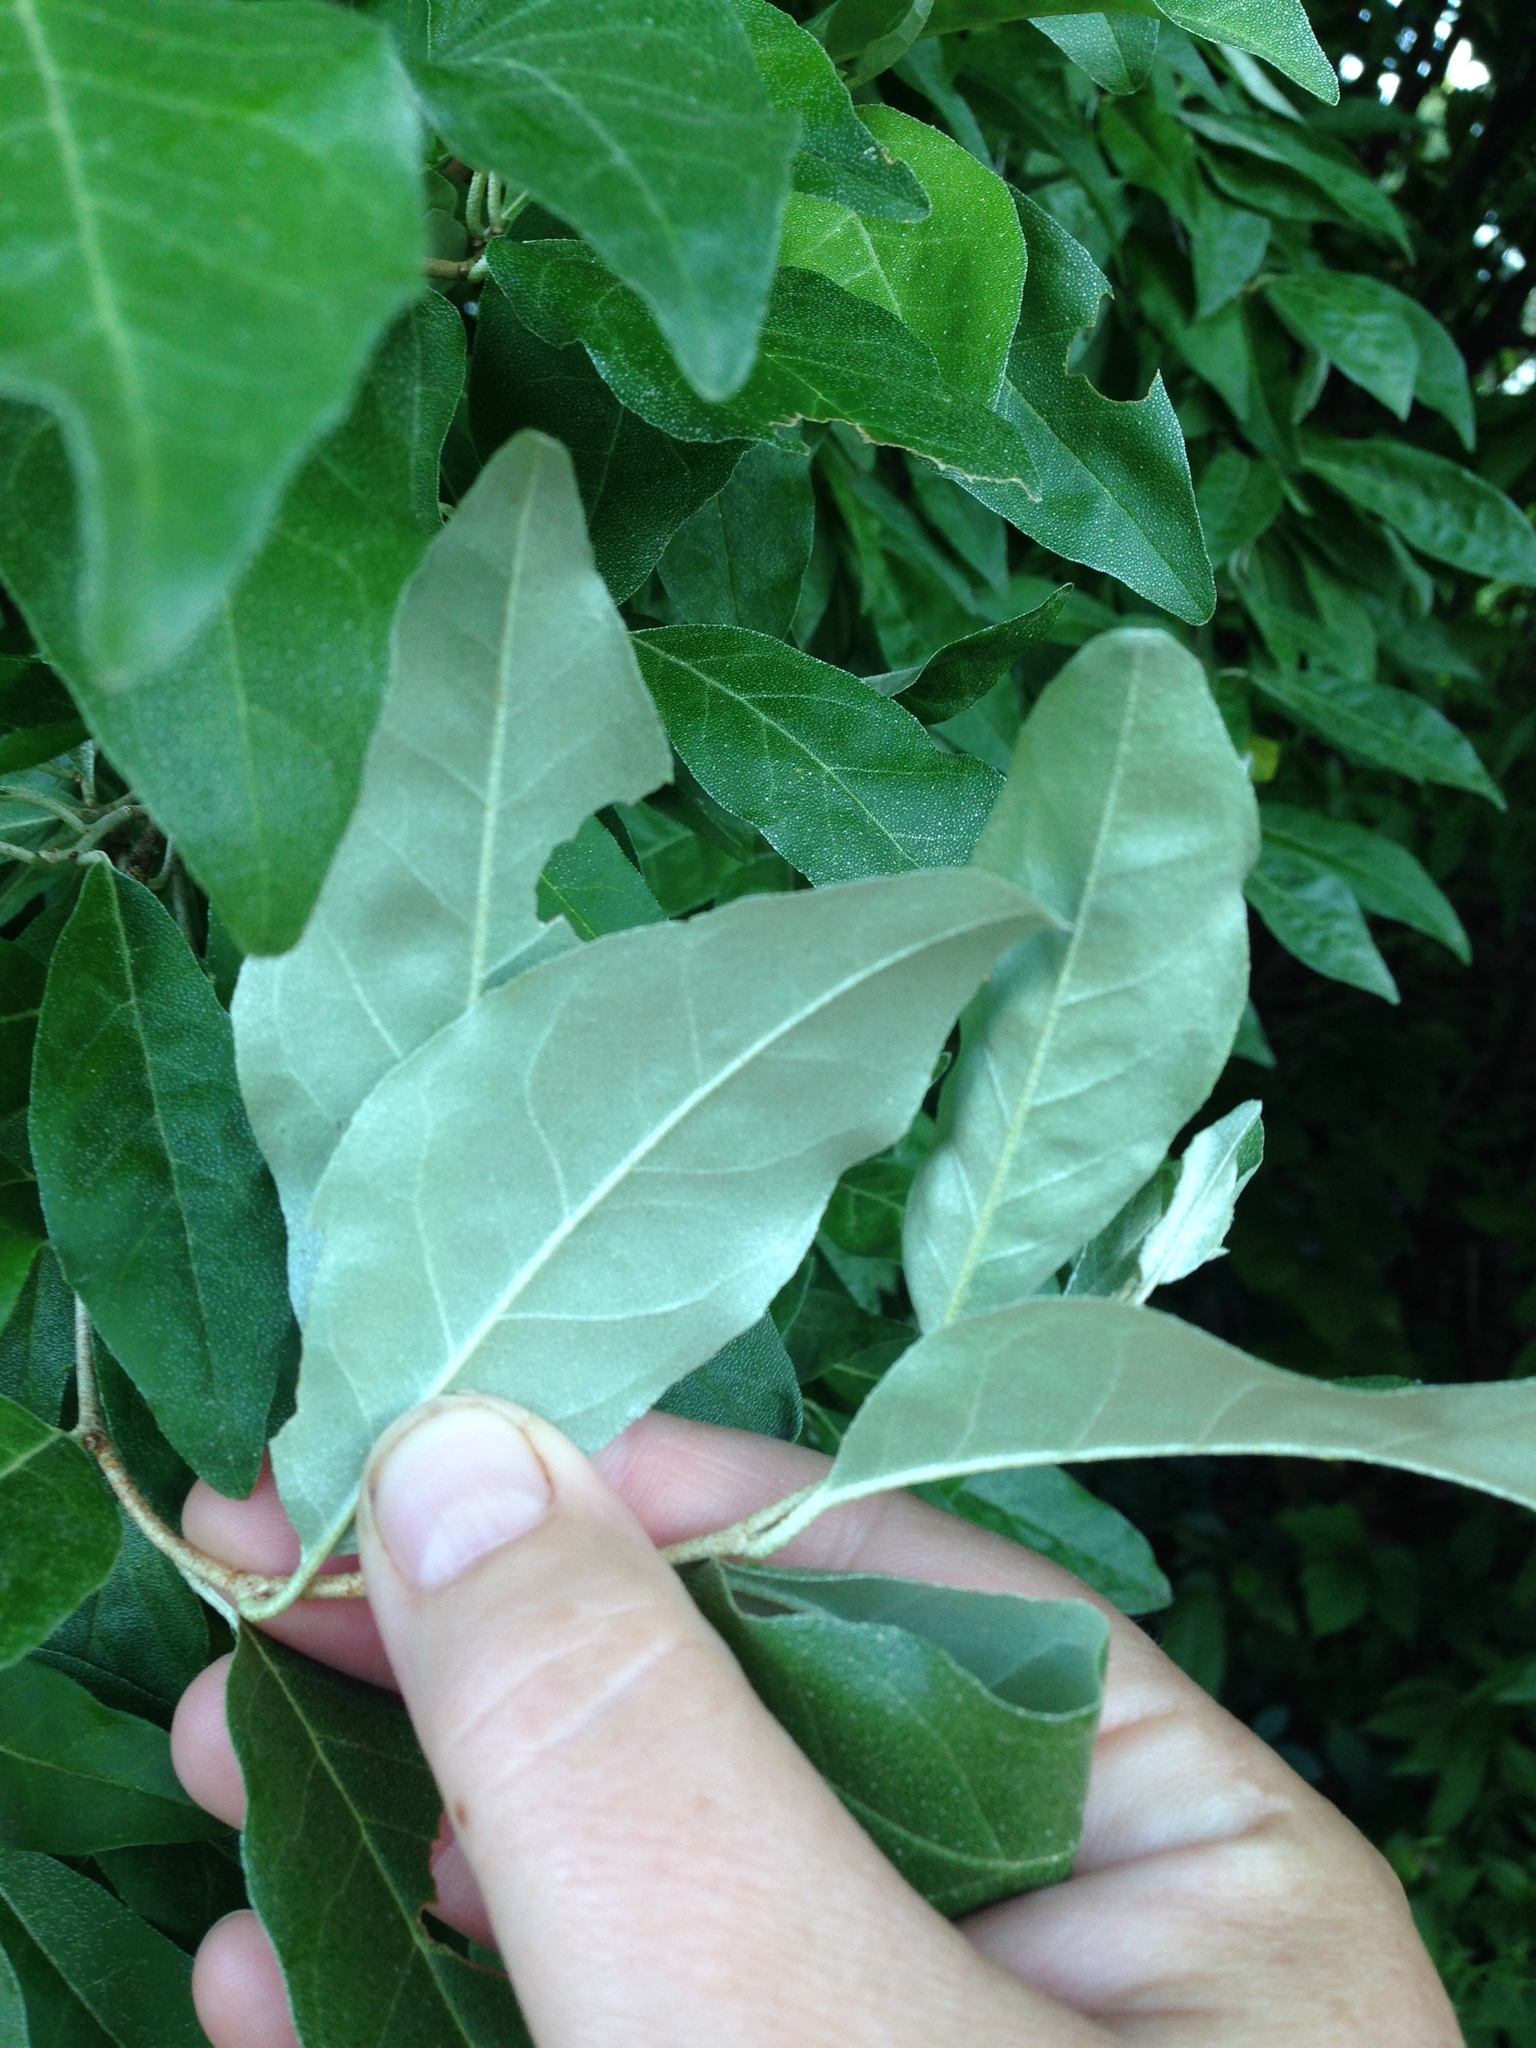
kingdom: Plantae
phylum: Tracheophyta
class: Magnoliopsida
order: Rosales
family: Elaeagnaceae
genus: Elaeagnus
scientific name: Elaeagnus umbellata
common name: Autumn olive
